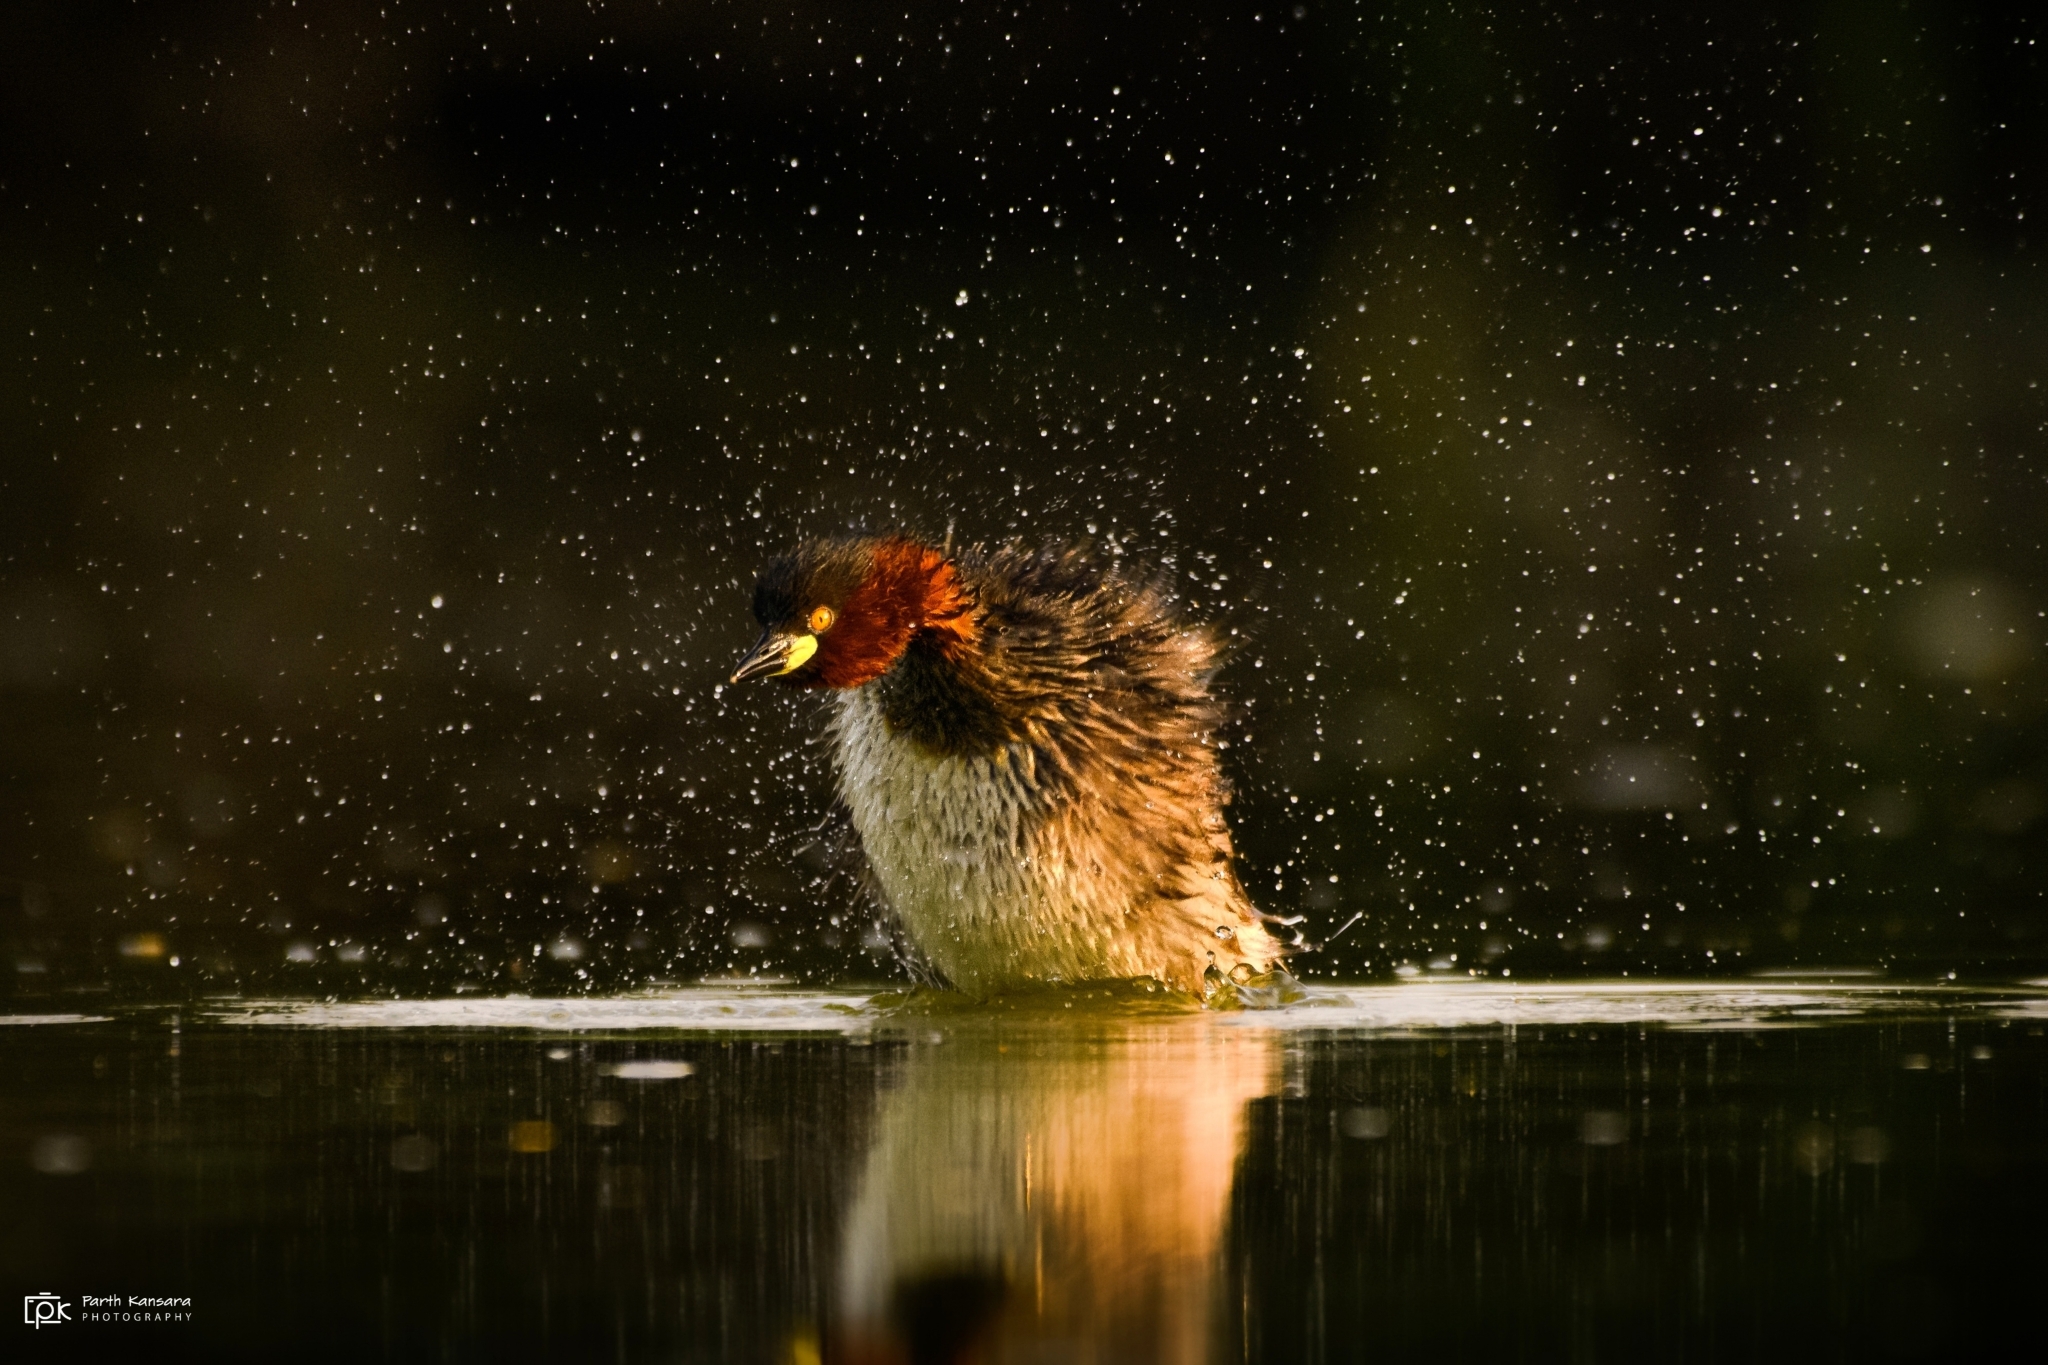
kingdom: Animalia
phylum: Chordata
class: Aves
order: Podicipediformes
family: Podicipedidae
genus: Tachybaptus
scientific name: Tachybaptus ruficollis
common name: Little grebe
